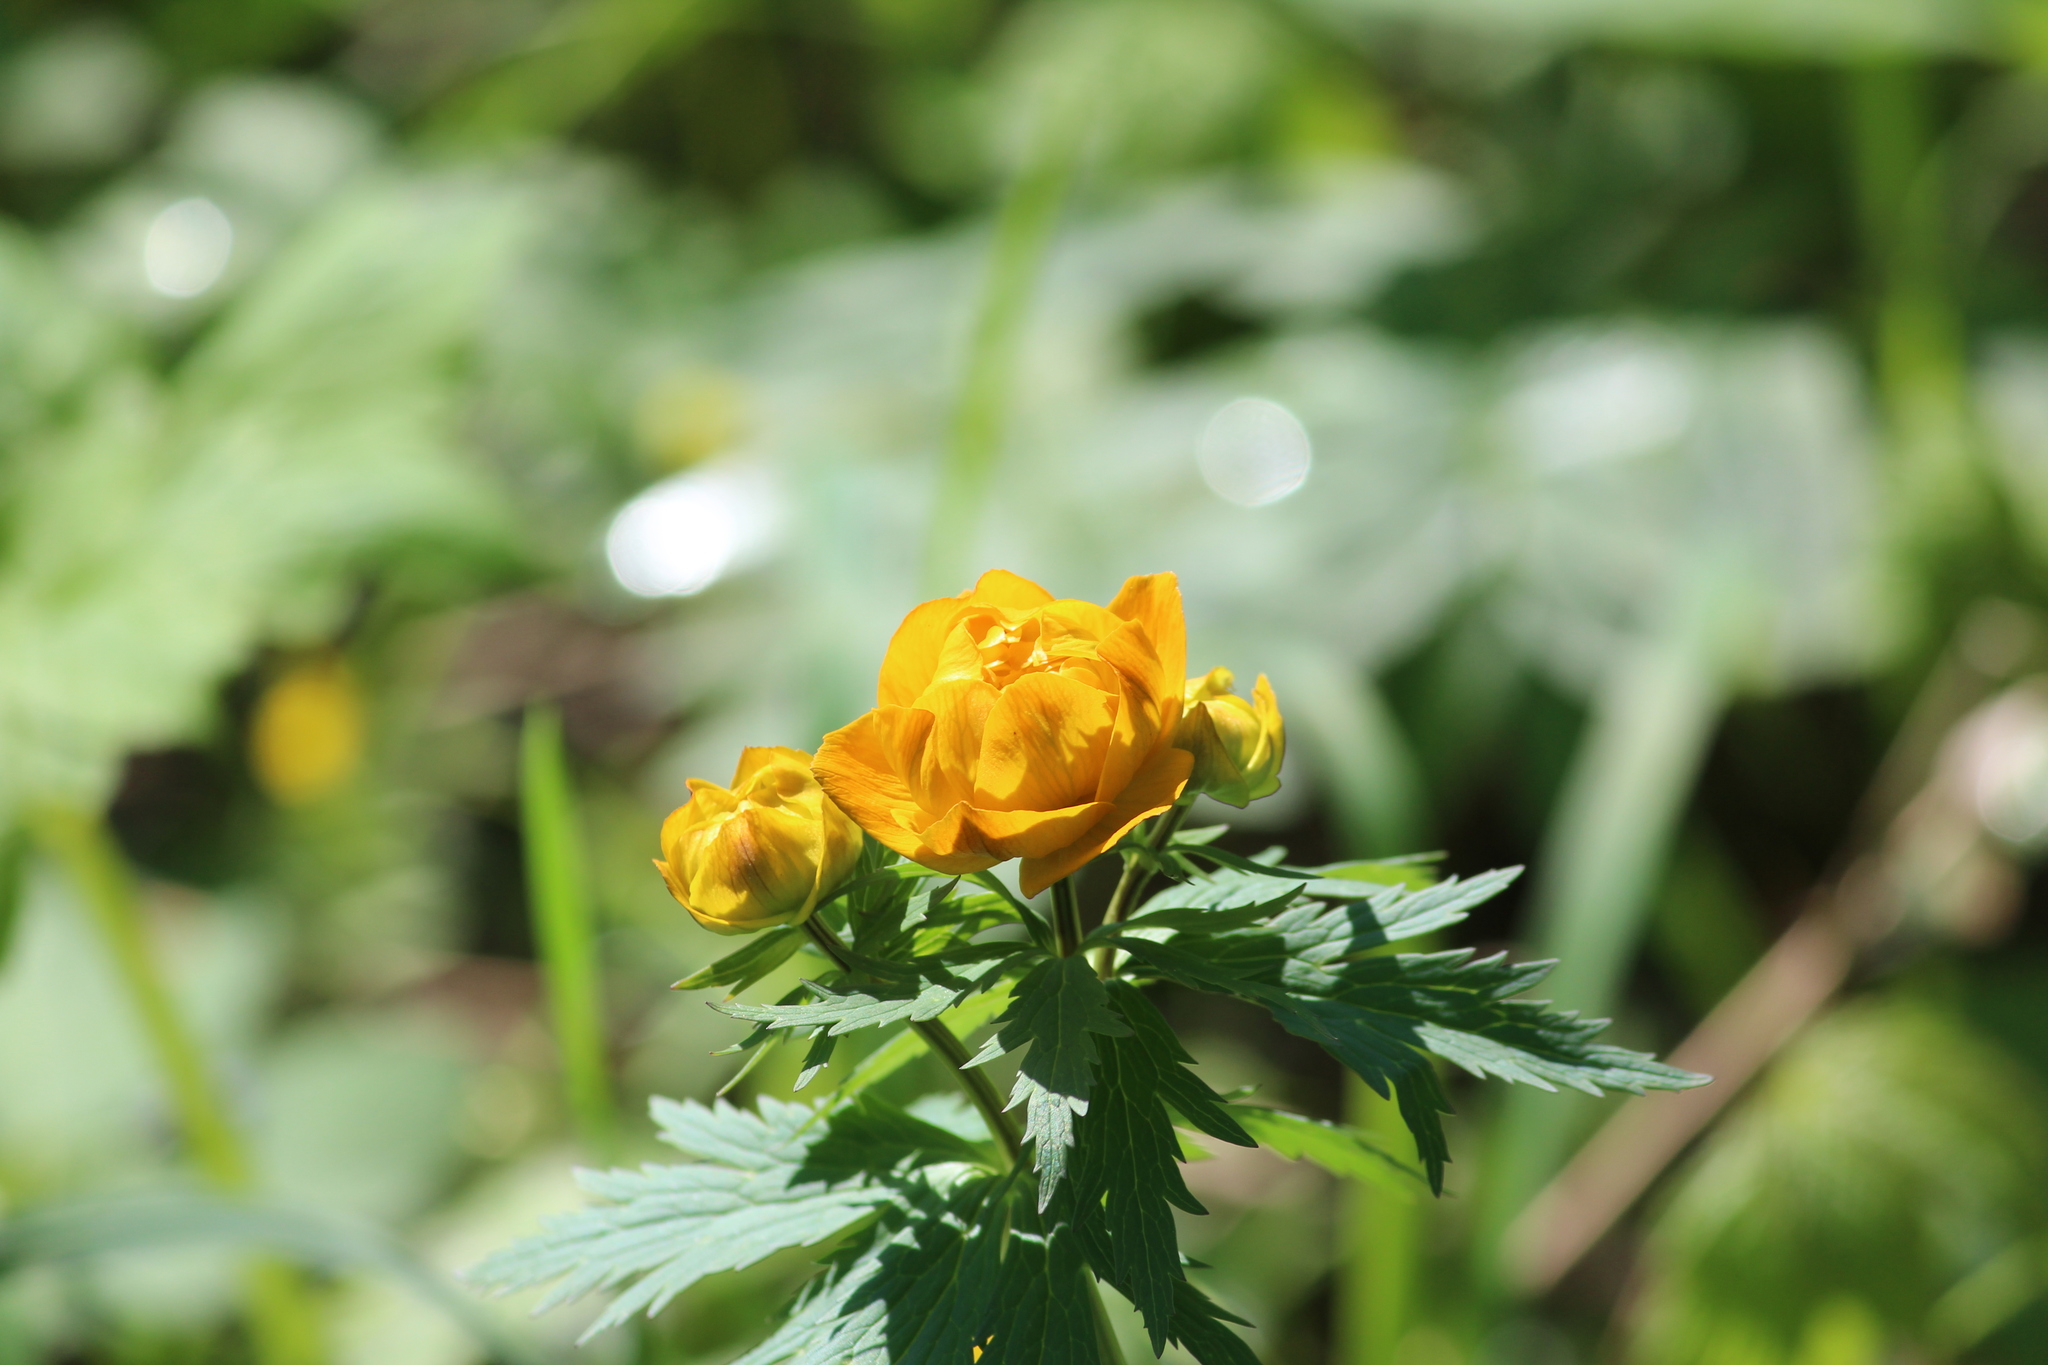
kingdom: Plantae
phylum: Tracheophyta
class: Magnoliopsida
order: Ranunculales
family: Ranunculaceae
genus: Trollius
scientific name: Trollius asiaticus
